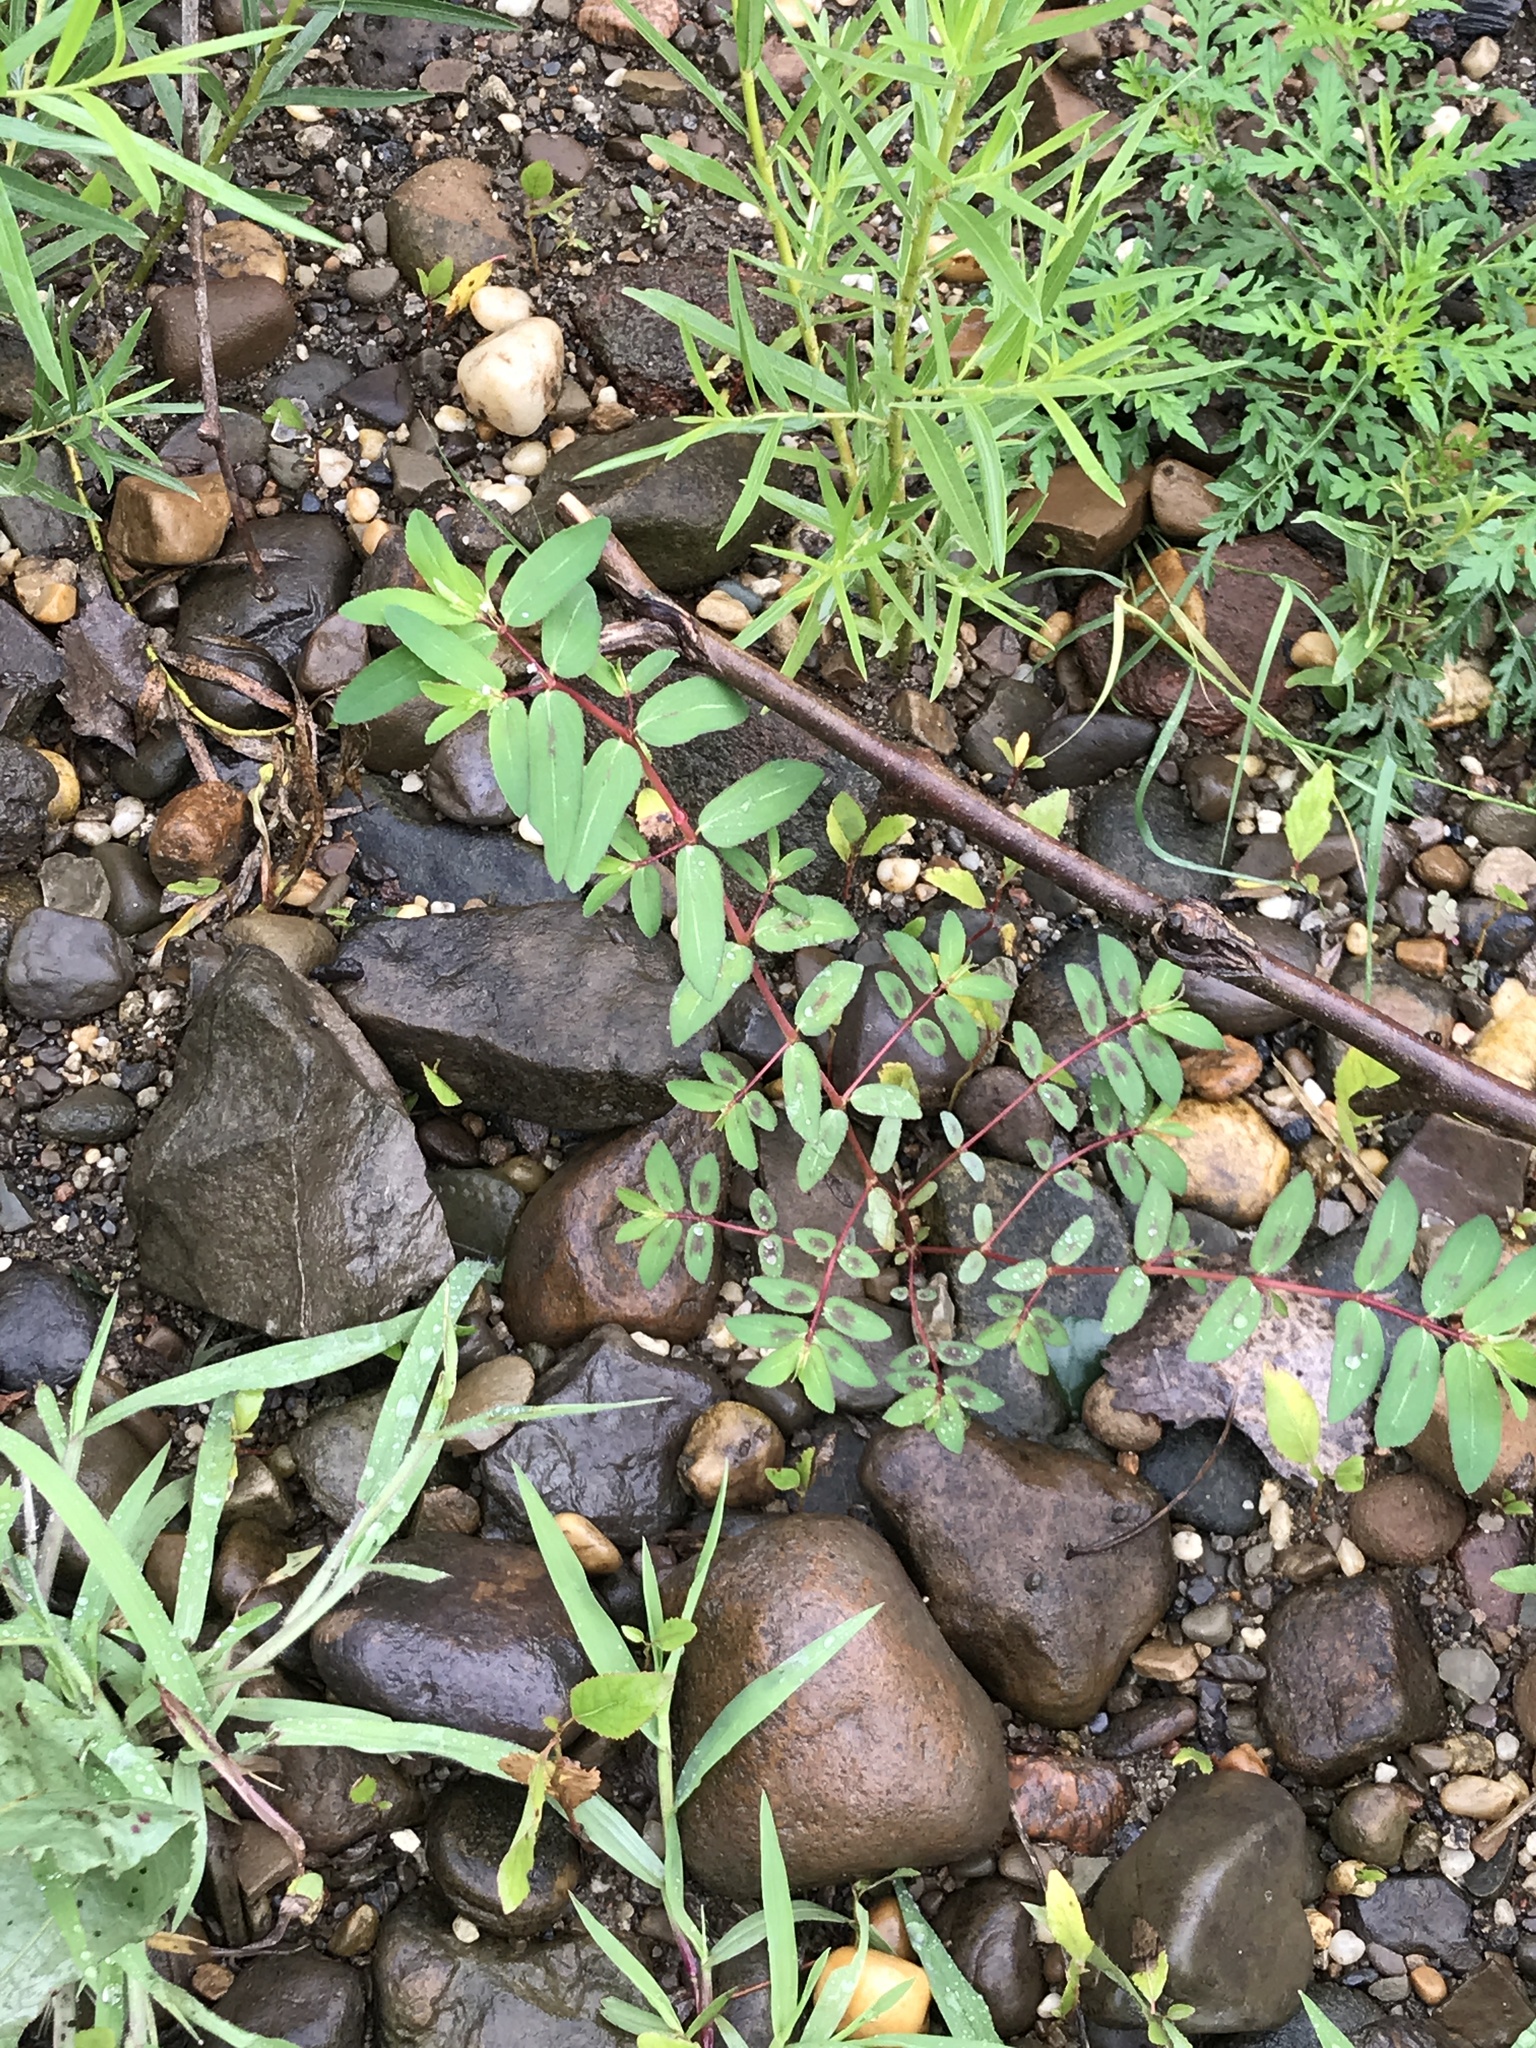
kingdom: Plantae
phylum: Tracheophyta
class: Magnoliopsida
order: Malpighiales
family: Euphorbiaceae
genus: Euphorbia
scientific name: Euphorbia nutans
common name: Eyebane
